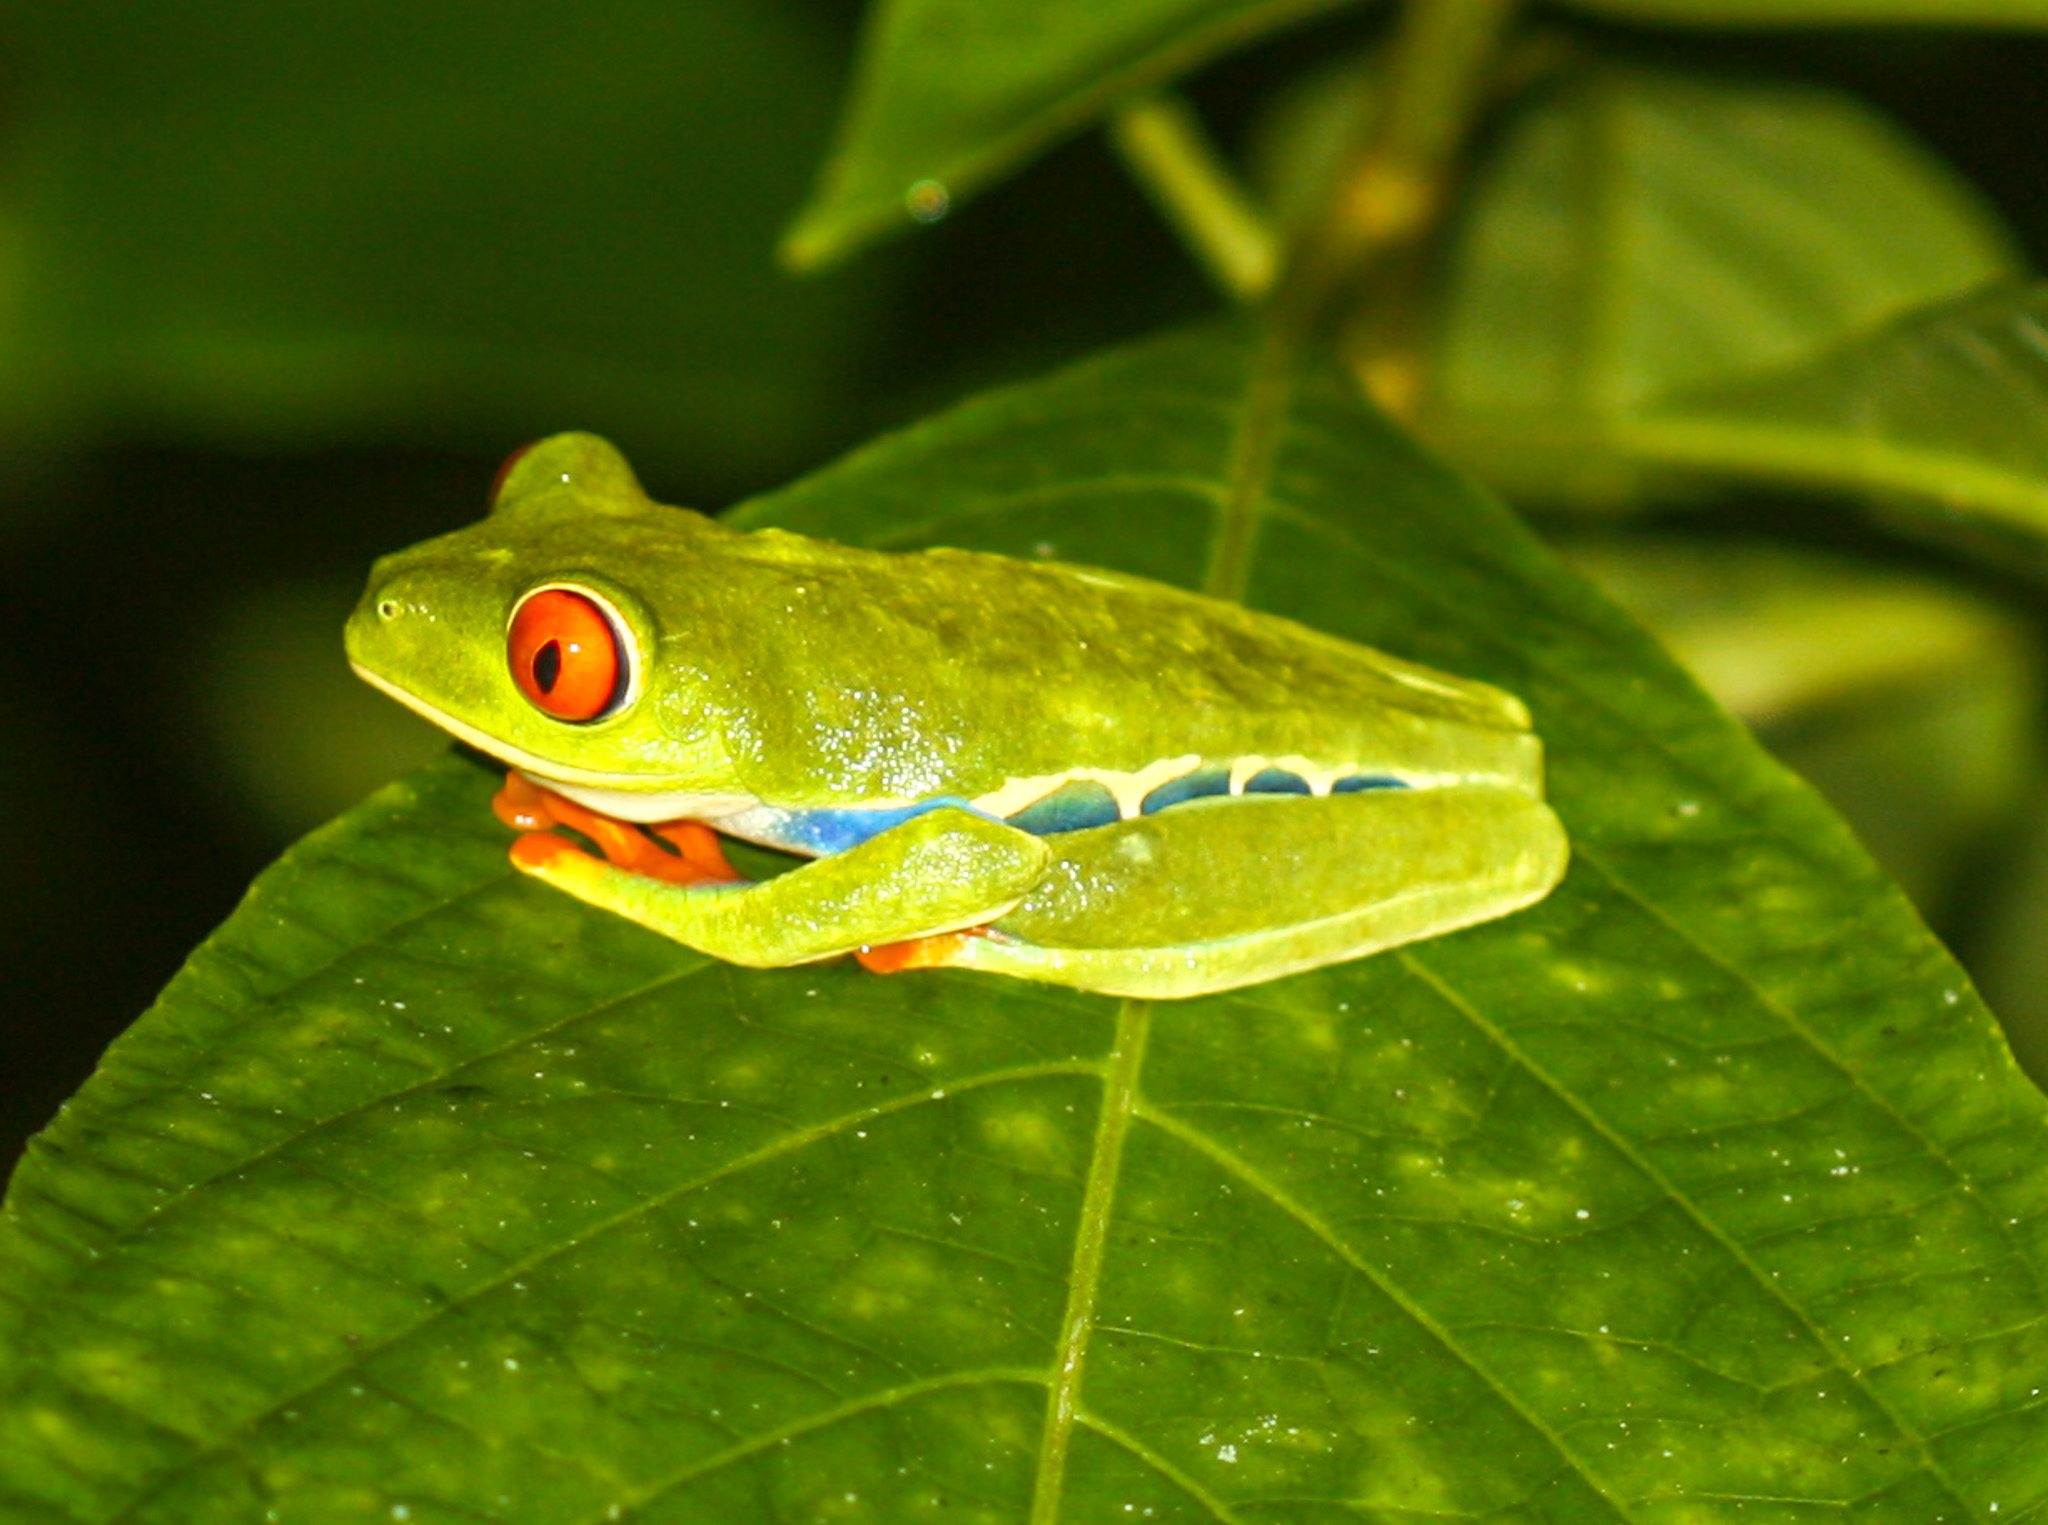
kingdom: Animalia
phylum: Chordata
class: Amphibia
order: Anura
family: Phyllomedusidae
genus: Agalychnis
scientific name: Agalychnis callidryas
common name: Red-eyed treefrog
